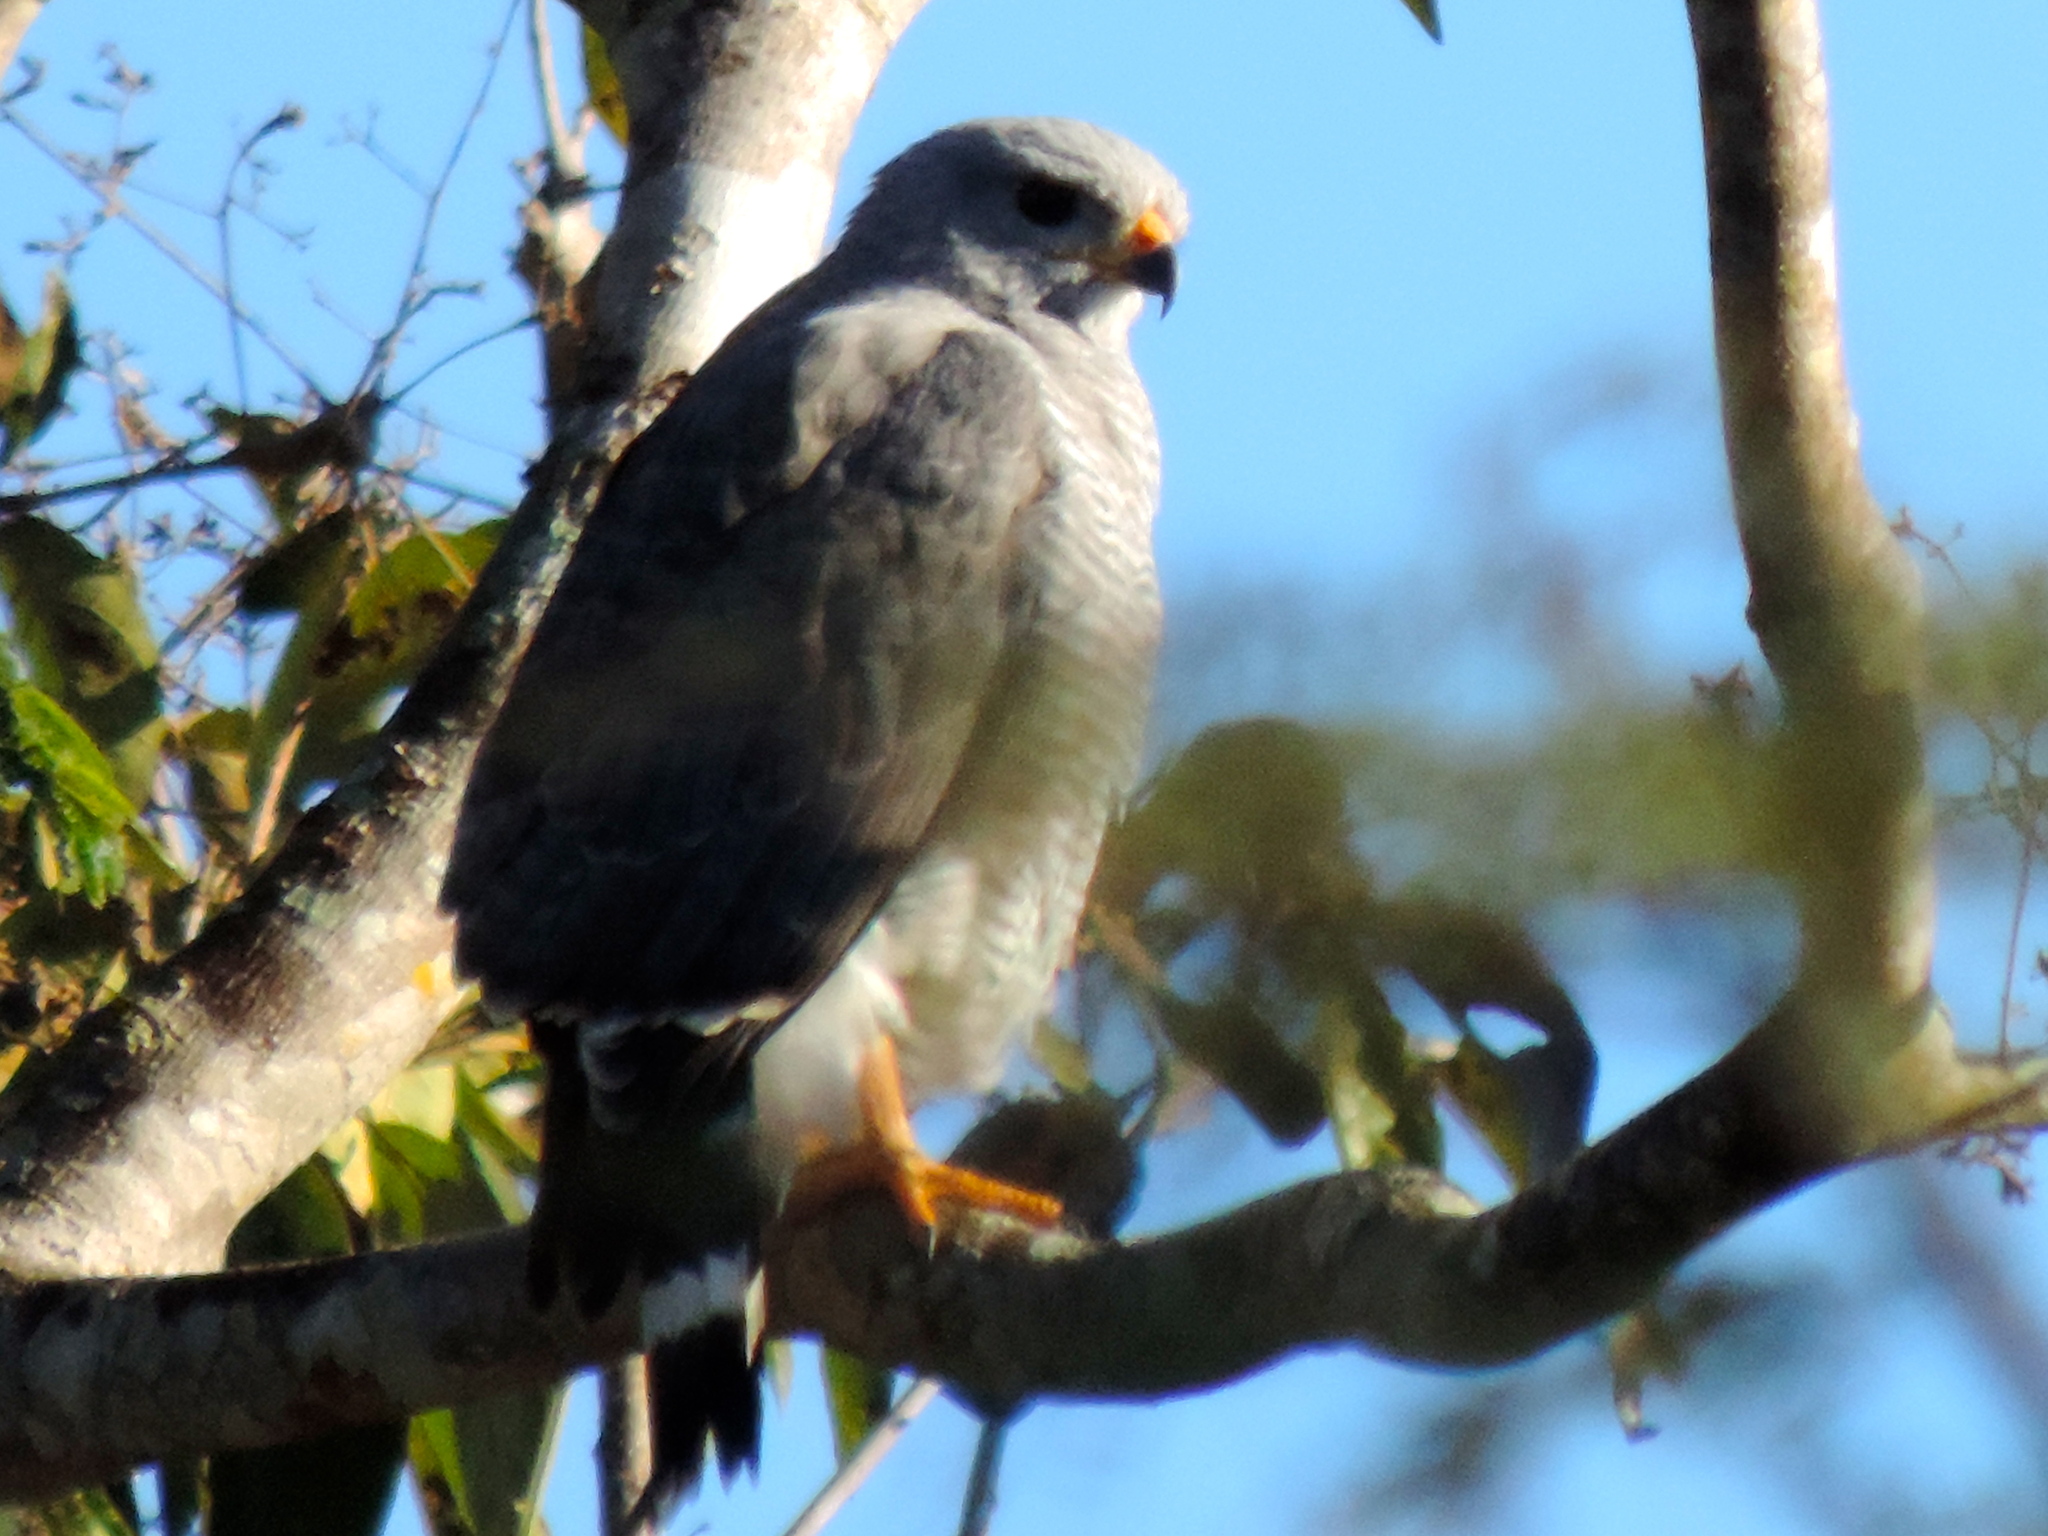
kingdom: Animalia
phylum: Chordata
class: Aves
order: Accipitriformes
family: Accipitridae
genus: Buteo
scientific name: Buteo nitidus
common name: Grey-lined hawk
